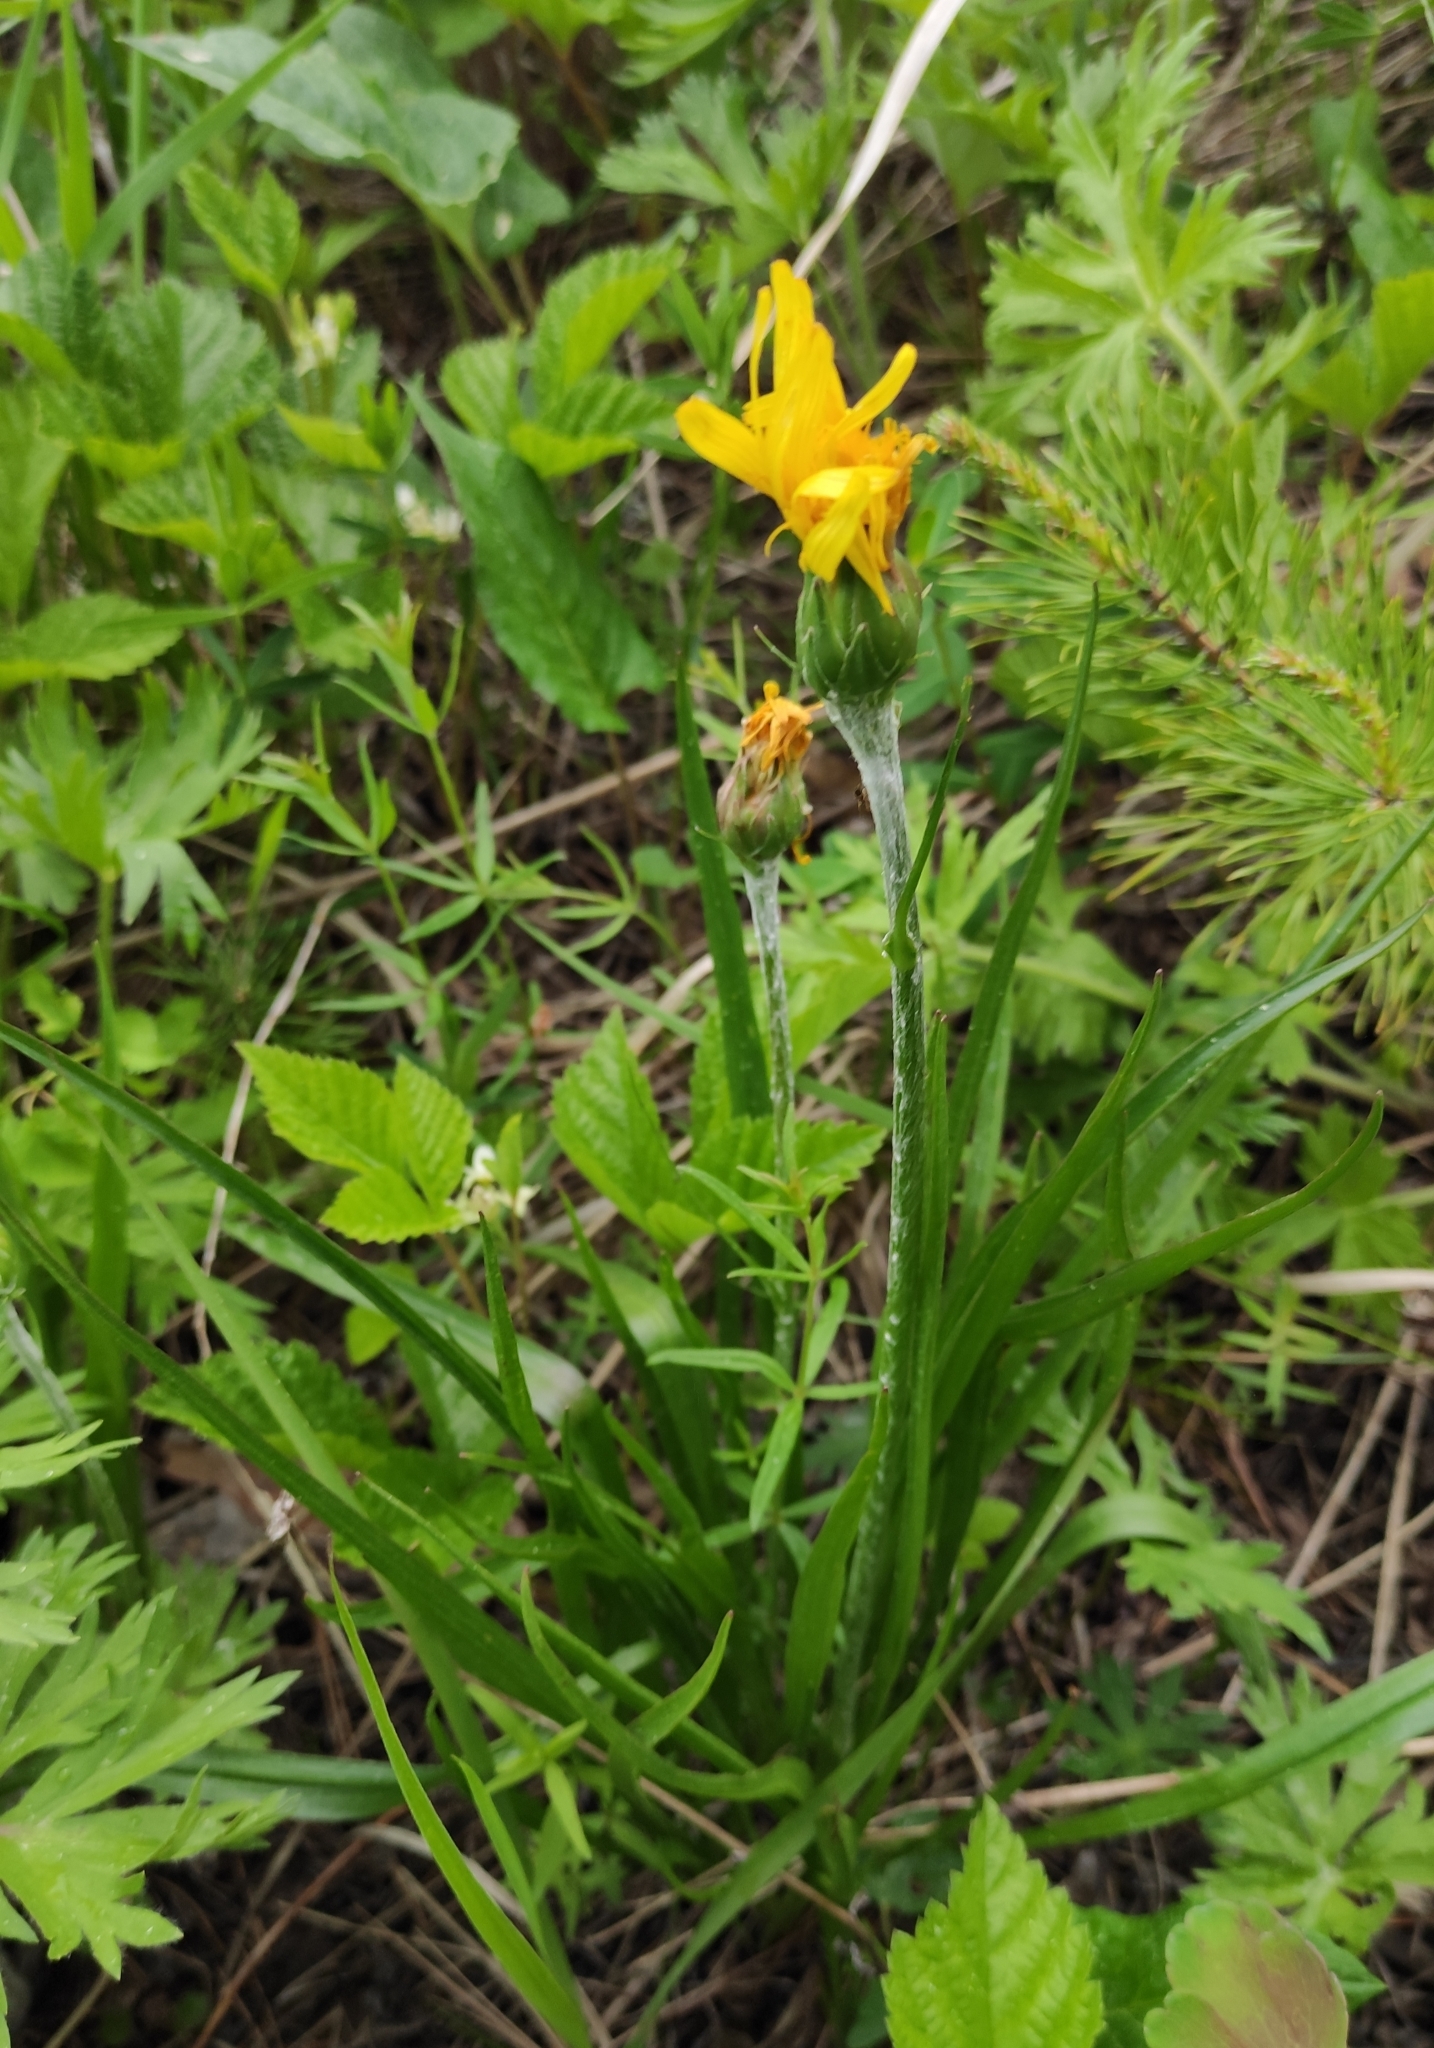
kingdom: Plantae
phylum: Tracheophyta
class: Magnoliopsida
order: Asterales
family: Asteraceae
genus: Scorzonera
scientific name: Scorzonera radiata
